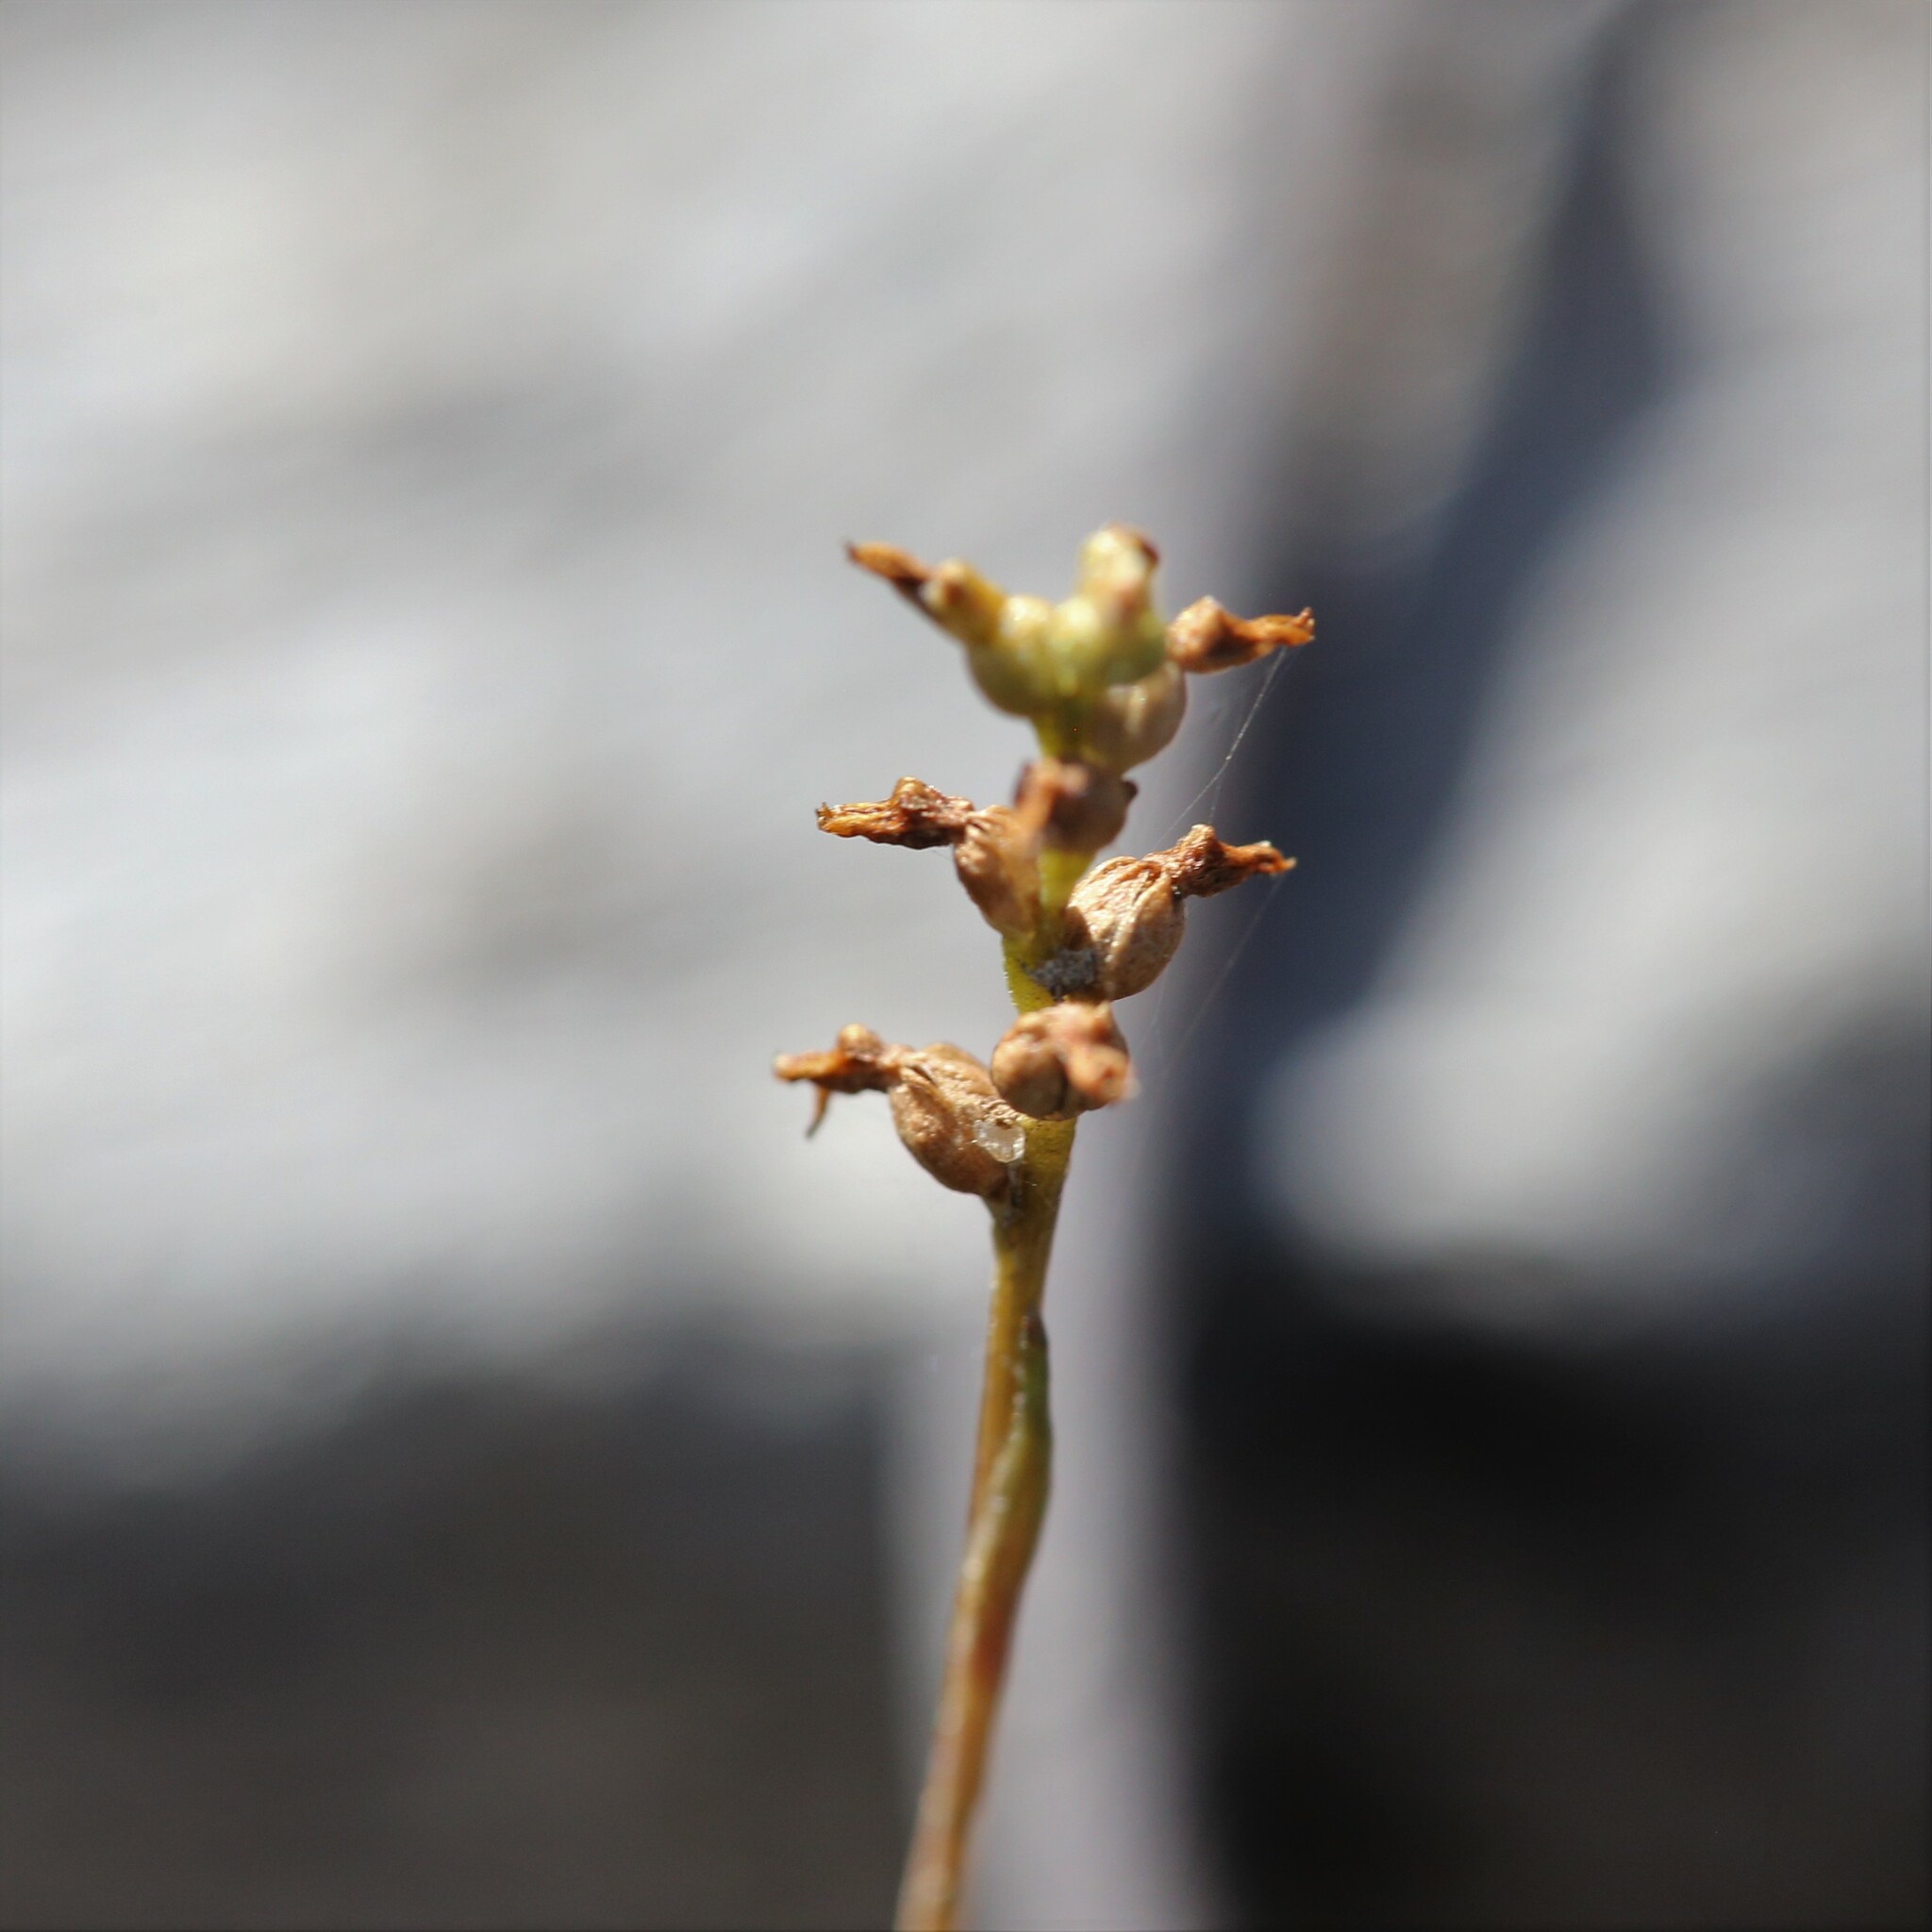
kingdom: Plantae
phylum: Tracheophyta
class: Liliopsida
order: Asparagales
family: Orchidaceae
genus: Genoplesium
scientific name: Genoplesium nigricans
